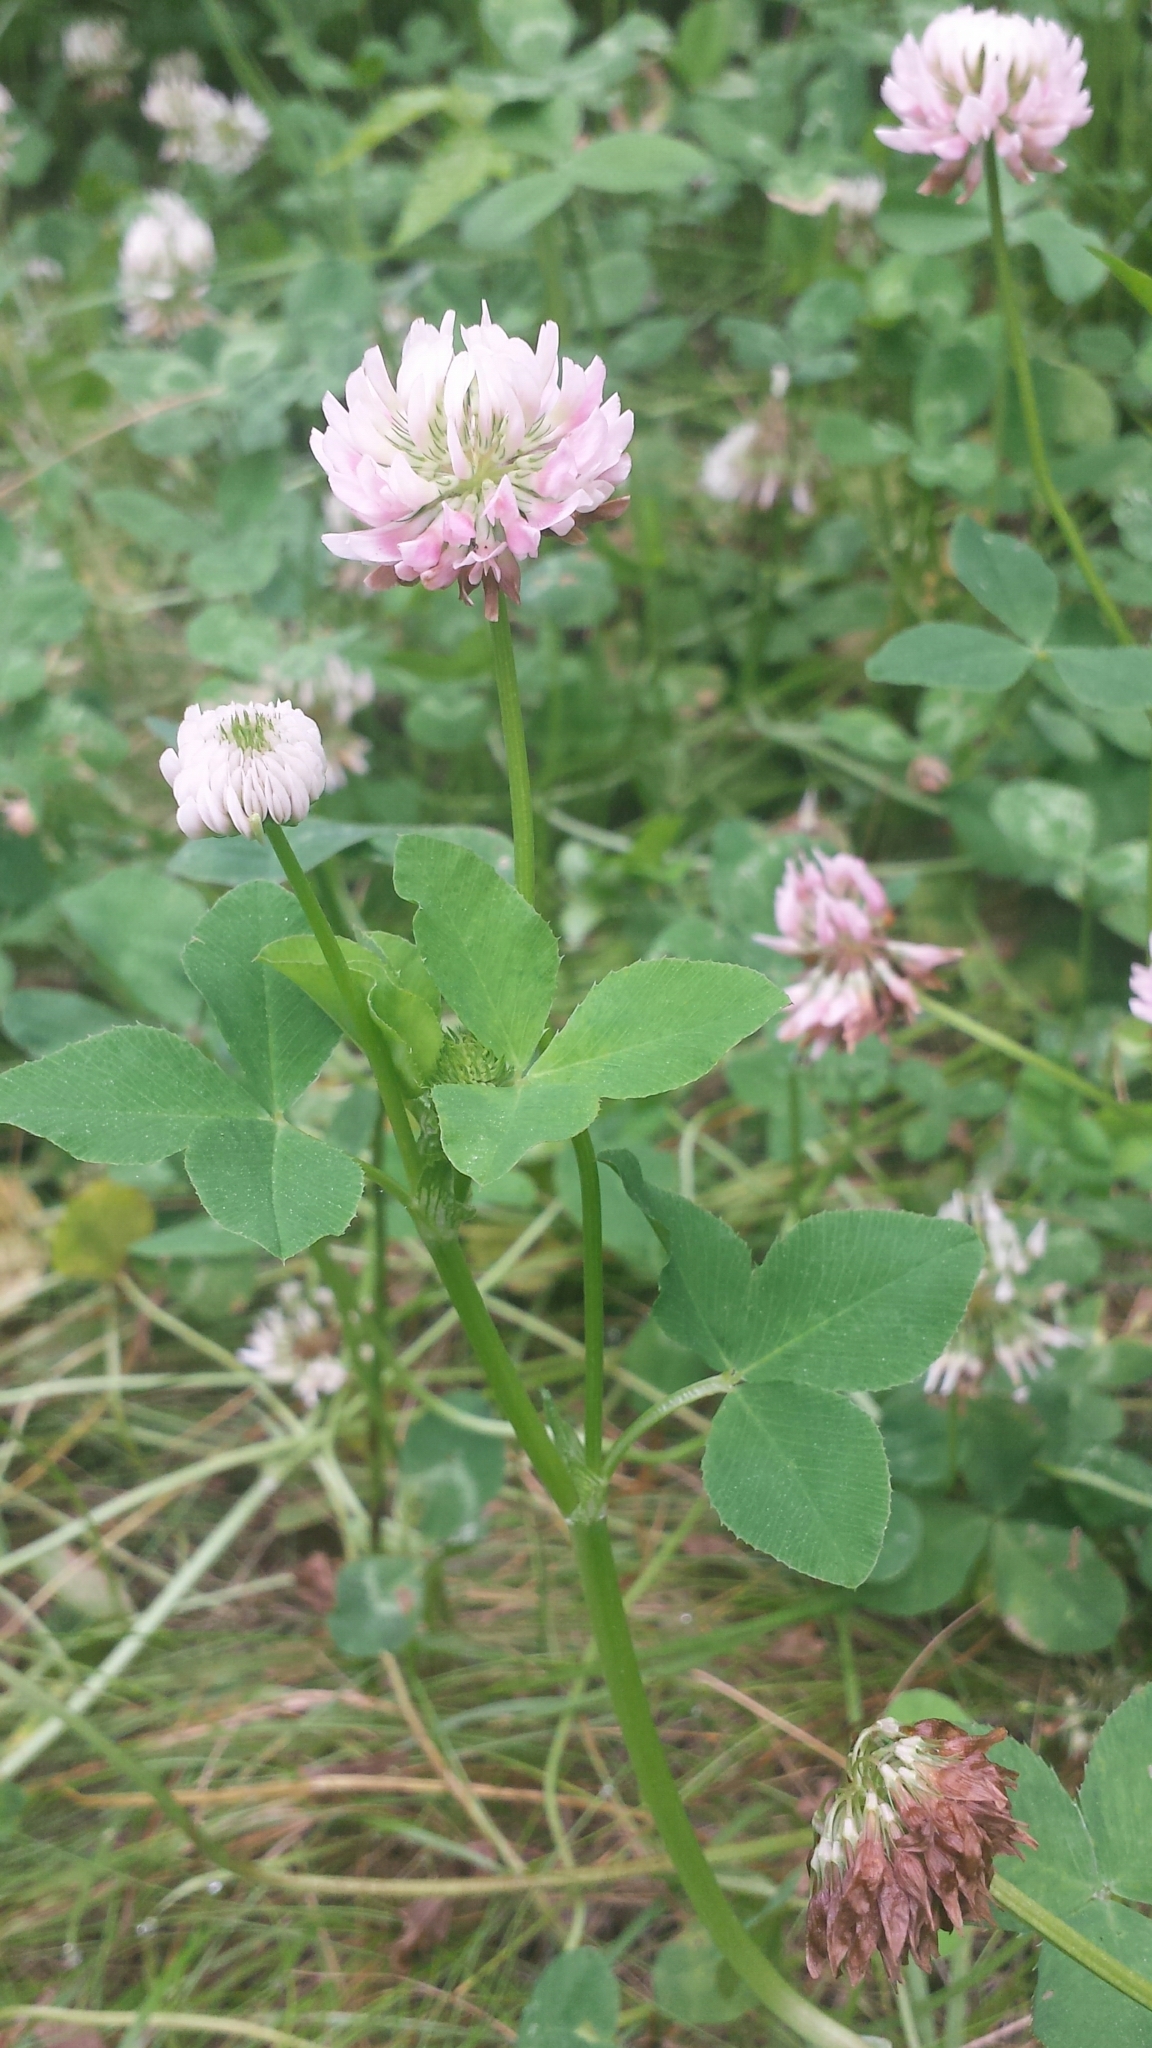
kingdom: Plantae
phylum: Tracheophyta
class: Magnoliopsida
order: Fabales
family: Fabaceae
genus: Trifolium
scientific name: Trifolium hybridum
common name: Alsike clover
